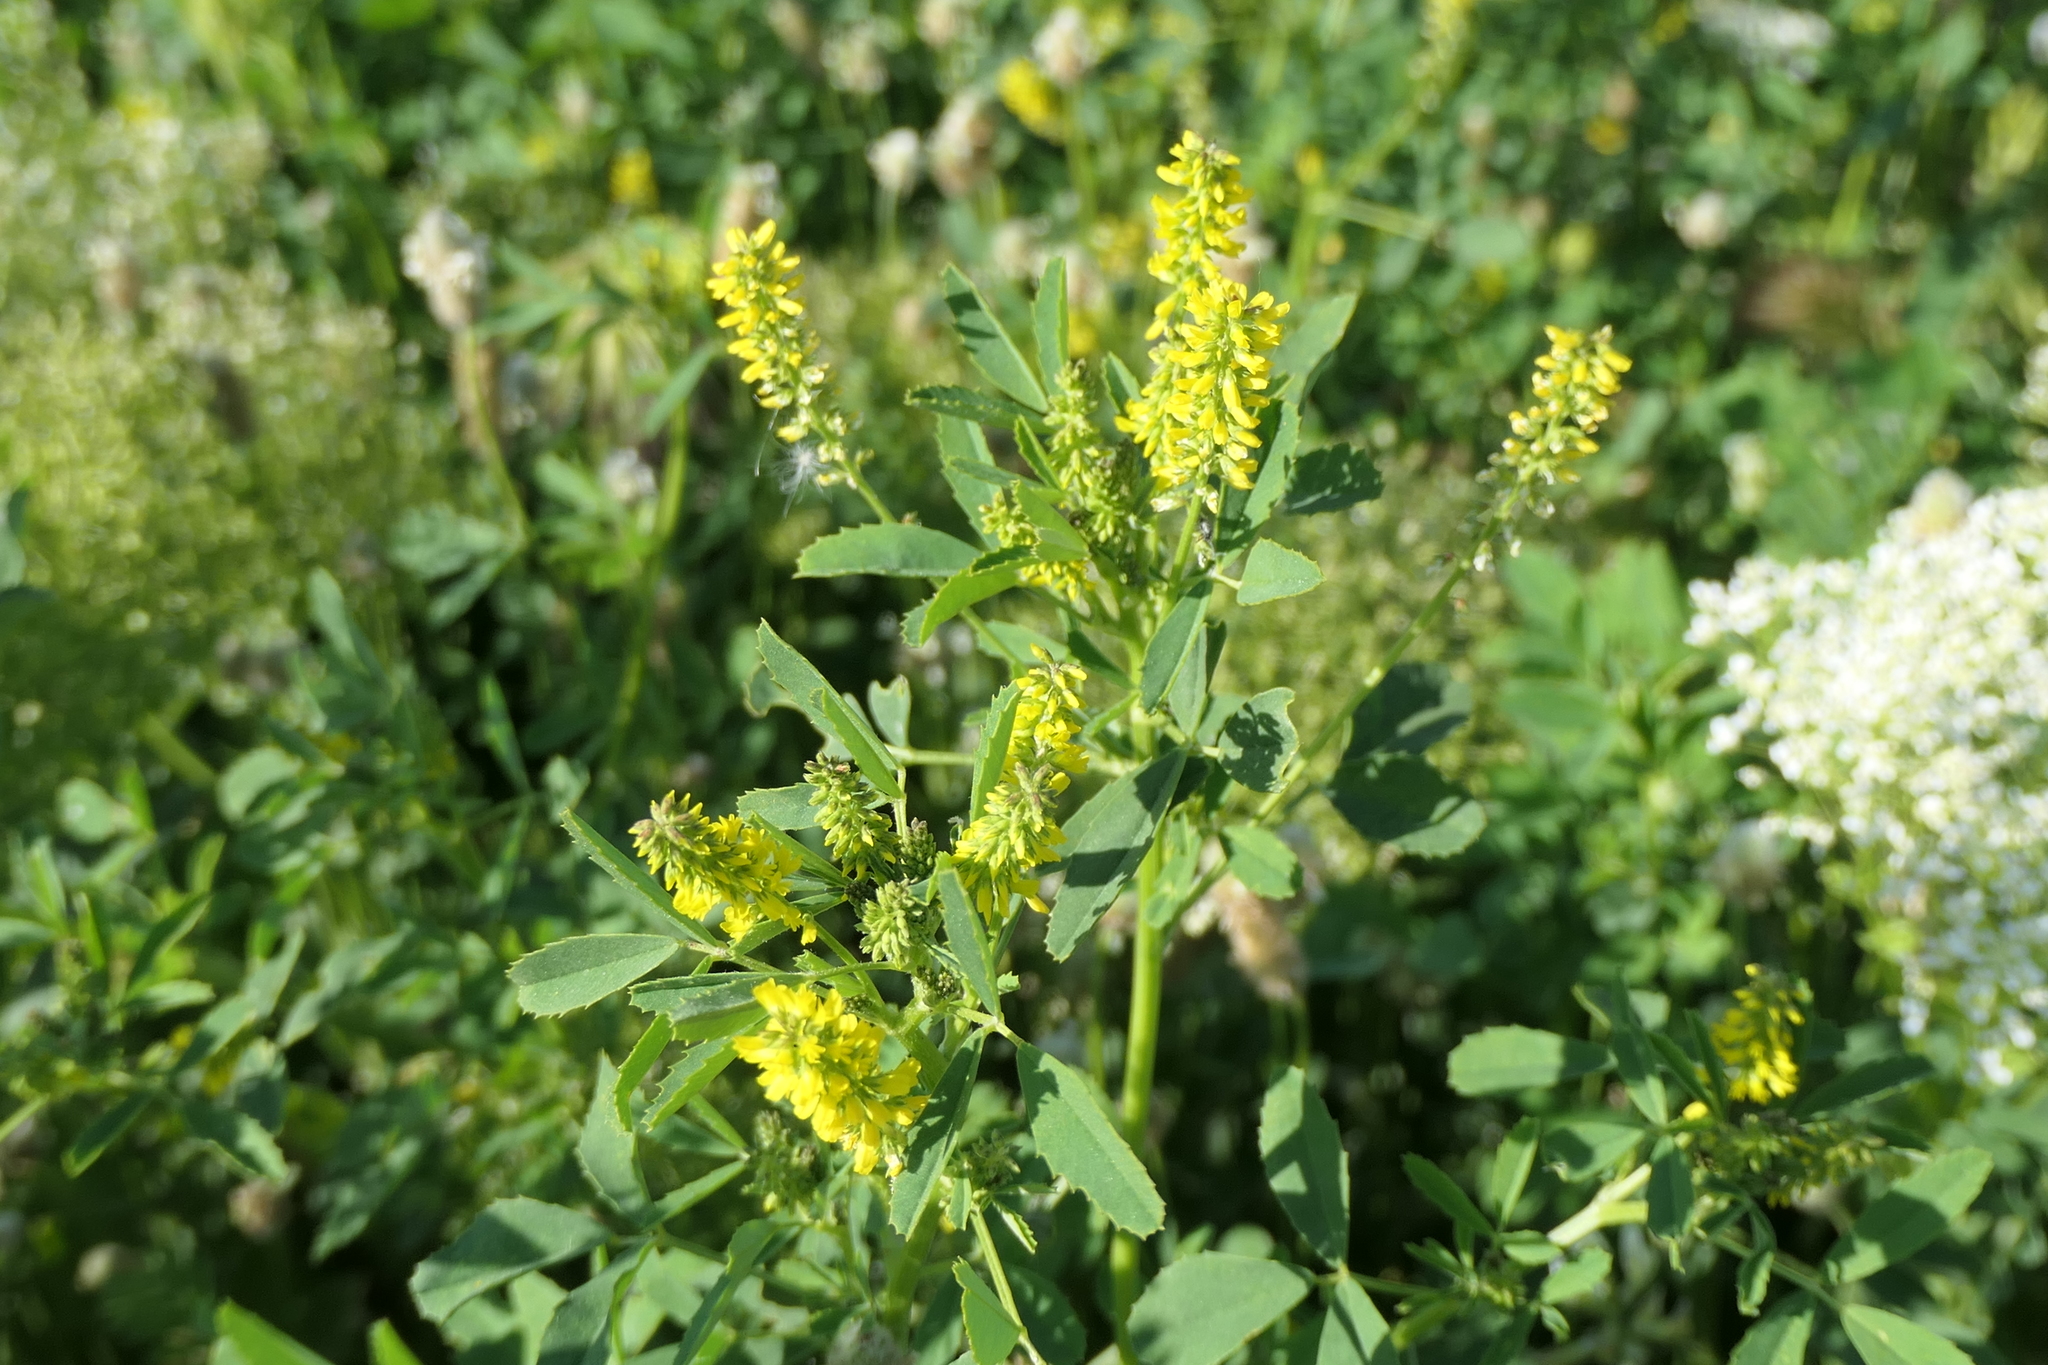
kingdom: Plantae
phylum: Tracheophyta
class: Magnoliopsida
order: Fabales
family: Fabaceae
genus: Melilotus
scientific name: Melilotus indicus
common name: Small melilot
